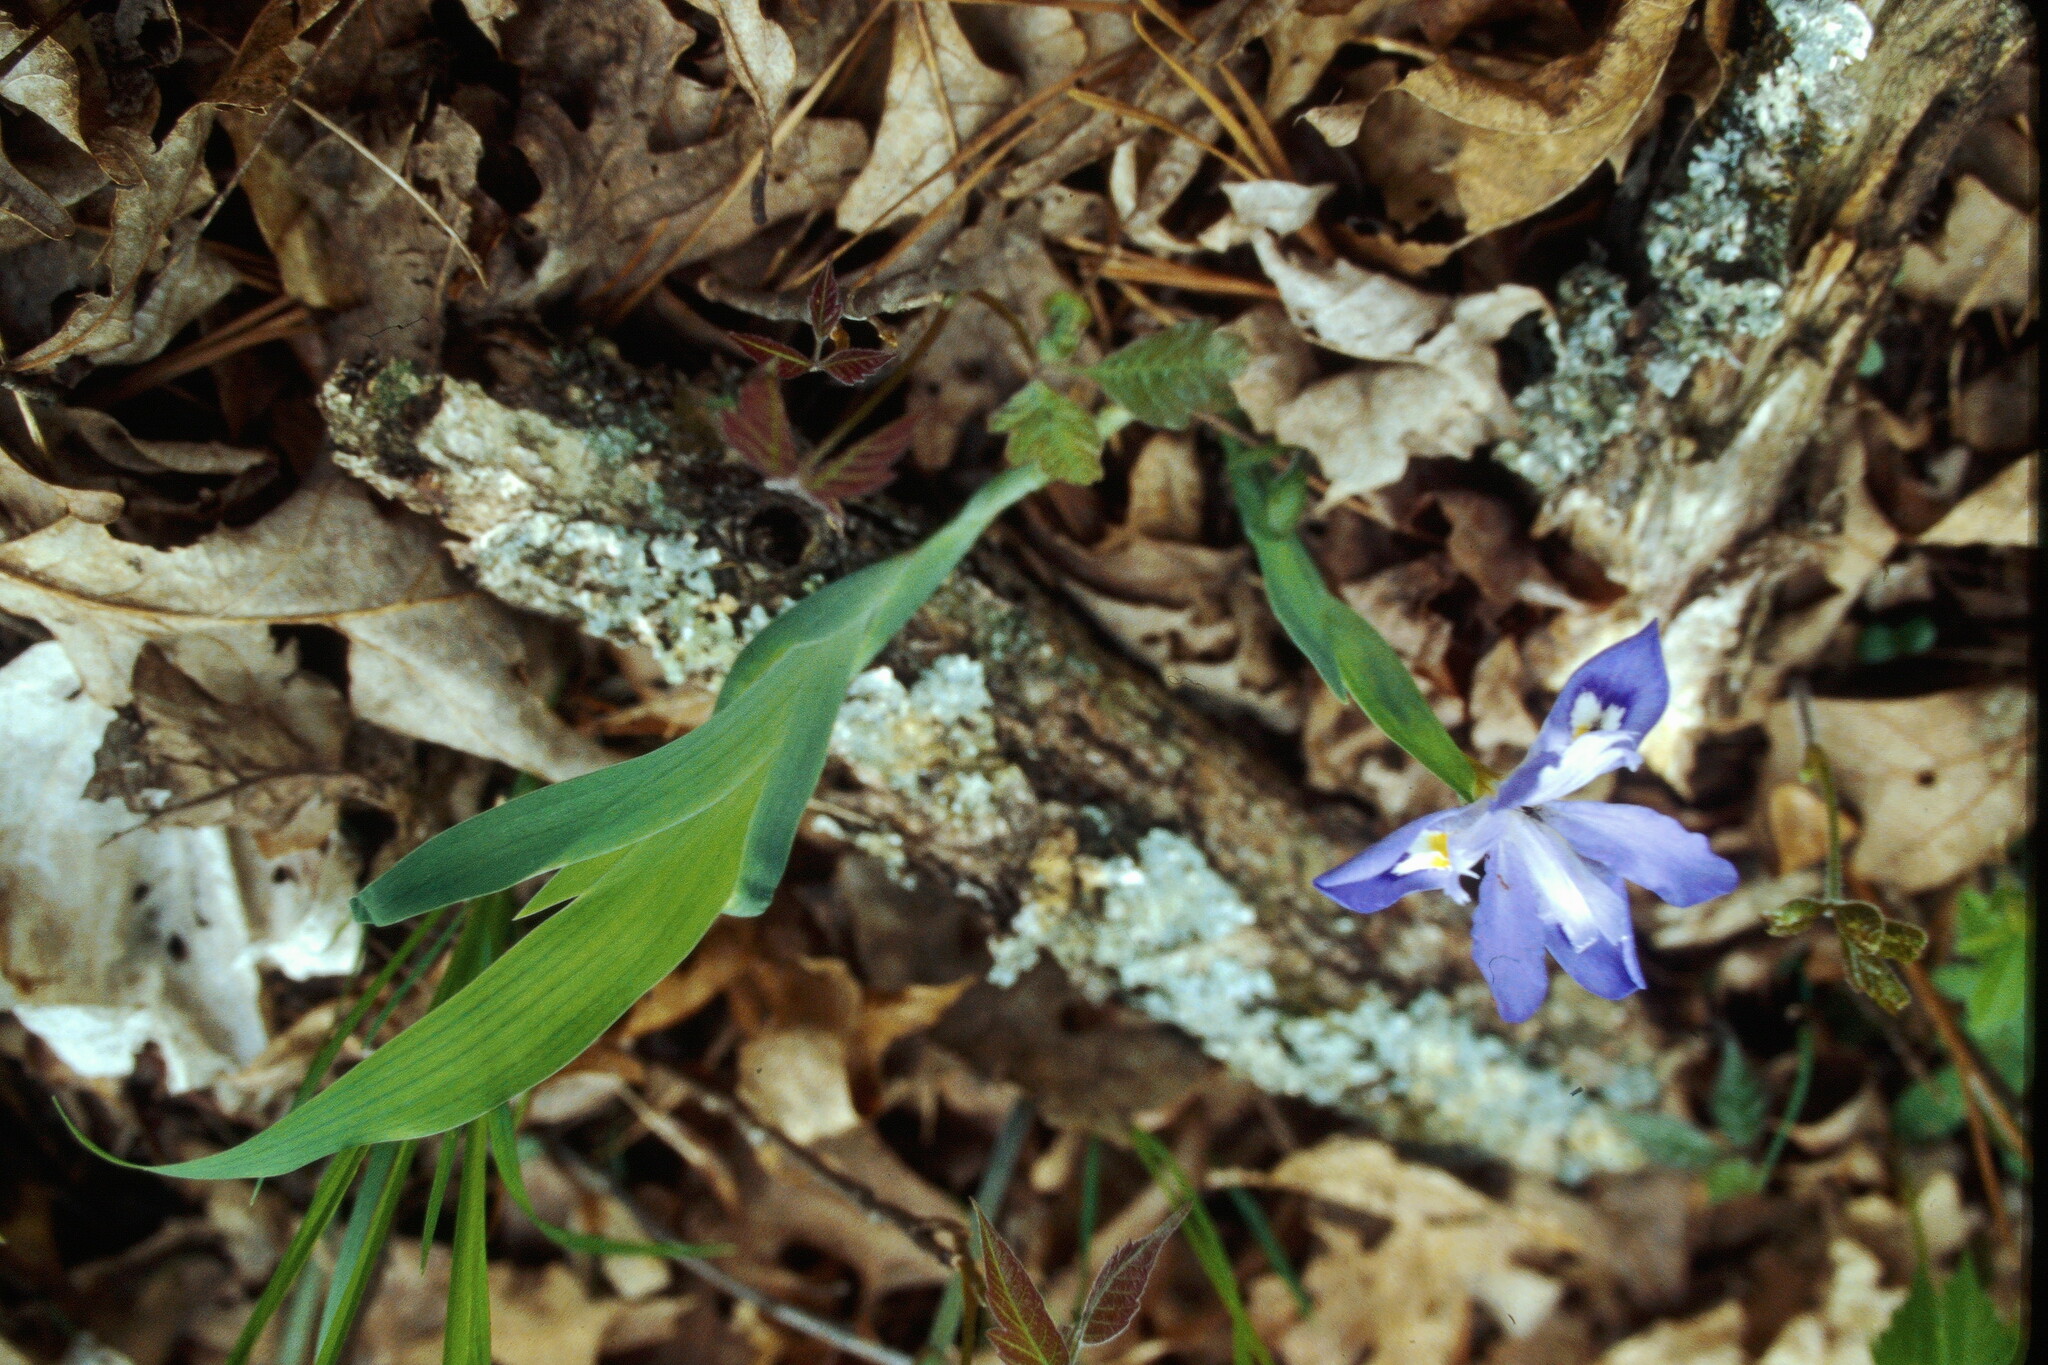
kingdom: Plantae
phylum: Tracheophyta
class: Liliopsida
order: Asparagales
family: Iridaceae
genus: Iris
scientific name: Iris cristata
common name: Crested iris
